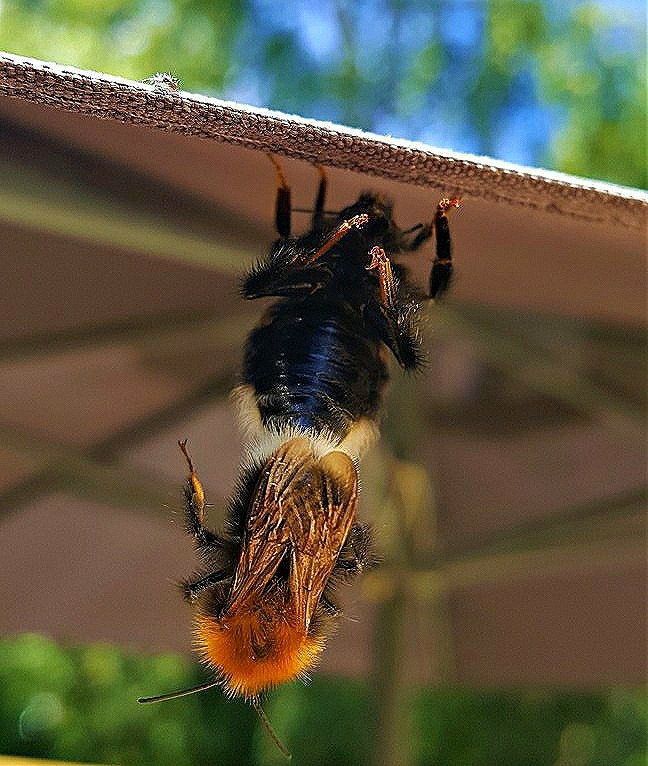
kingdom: Animalia
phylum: Arthropoda
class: Insecta
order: Hymenoptera
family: Apidae
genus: Bombus
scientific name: Bombus hypnorum
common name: New garden bumblebee
